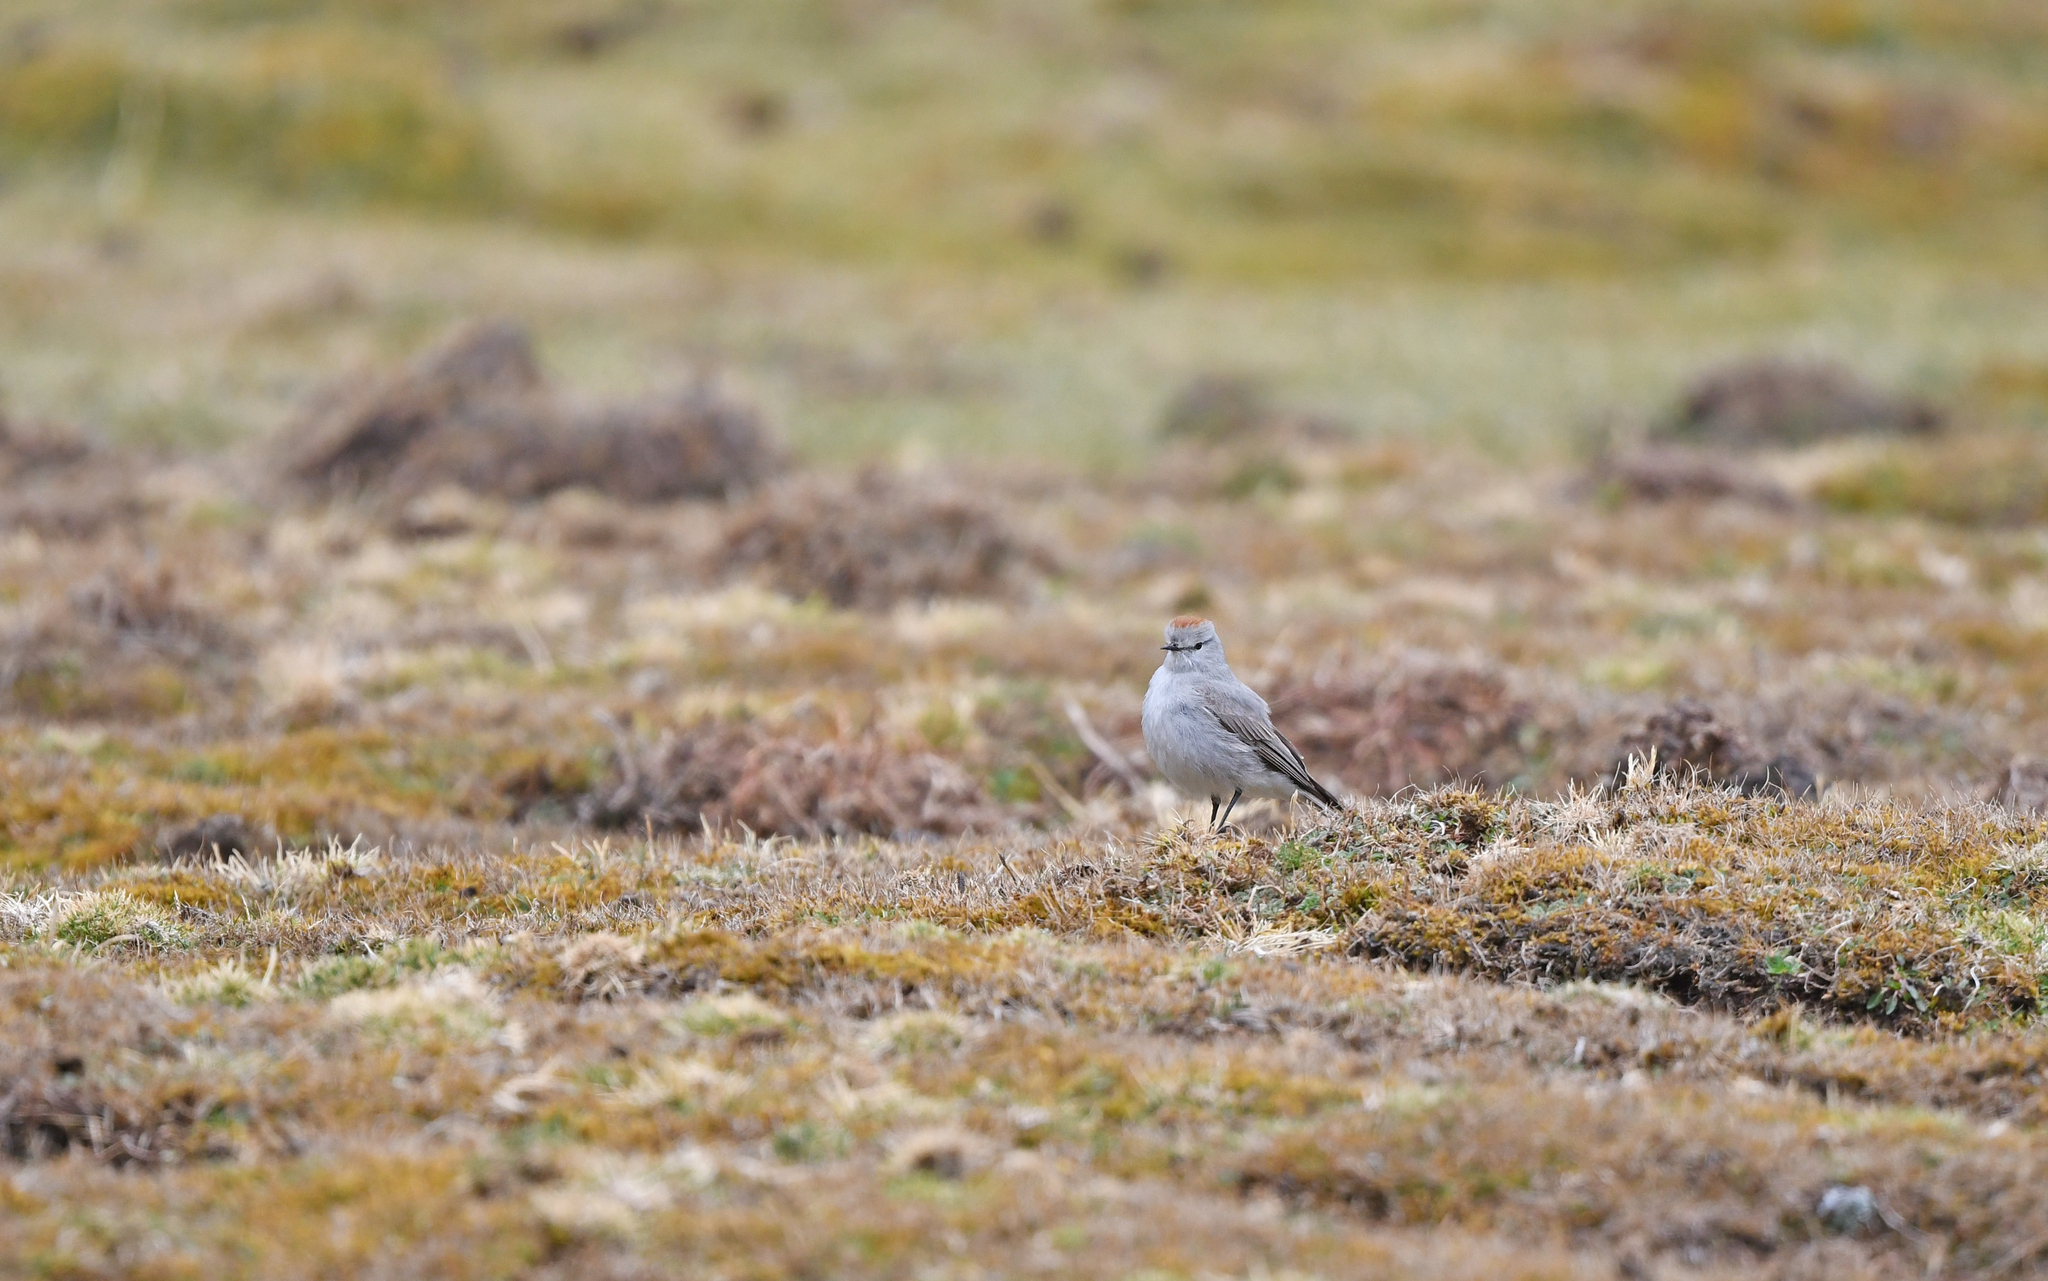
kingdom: Animalia
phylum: Chordata
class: Aves
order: Passeriformes
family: Tyrannidae
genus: Muscisaxicola
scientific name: Muscisaxicola rufivertex
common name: Rufous-naped ground tyrant
